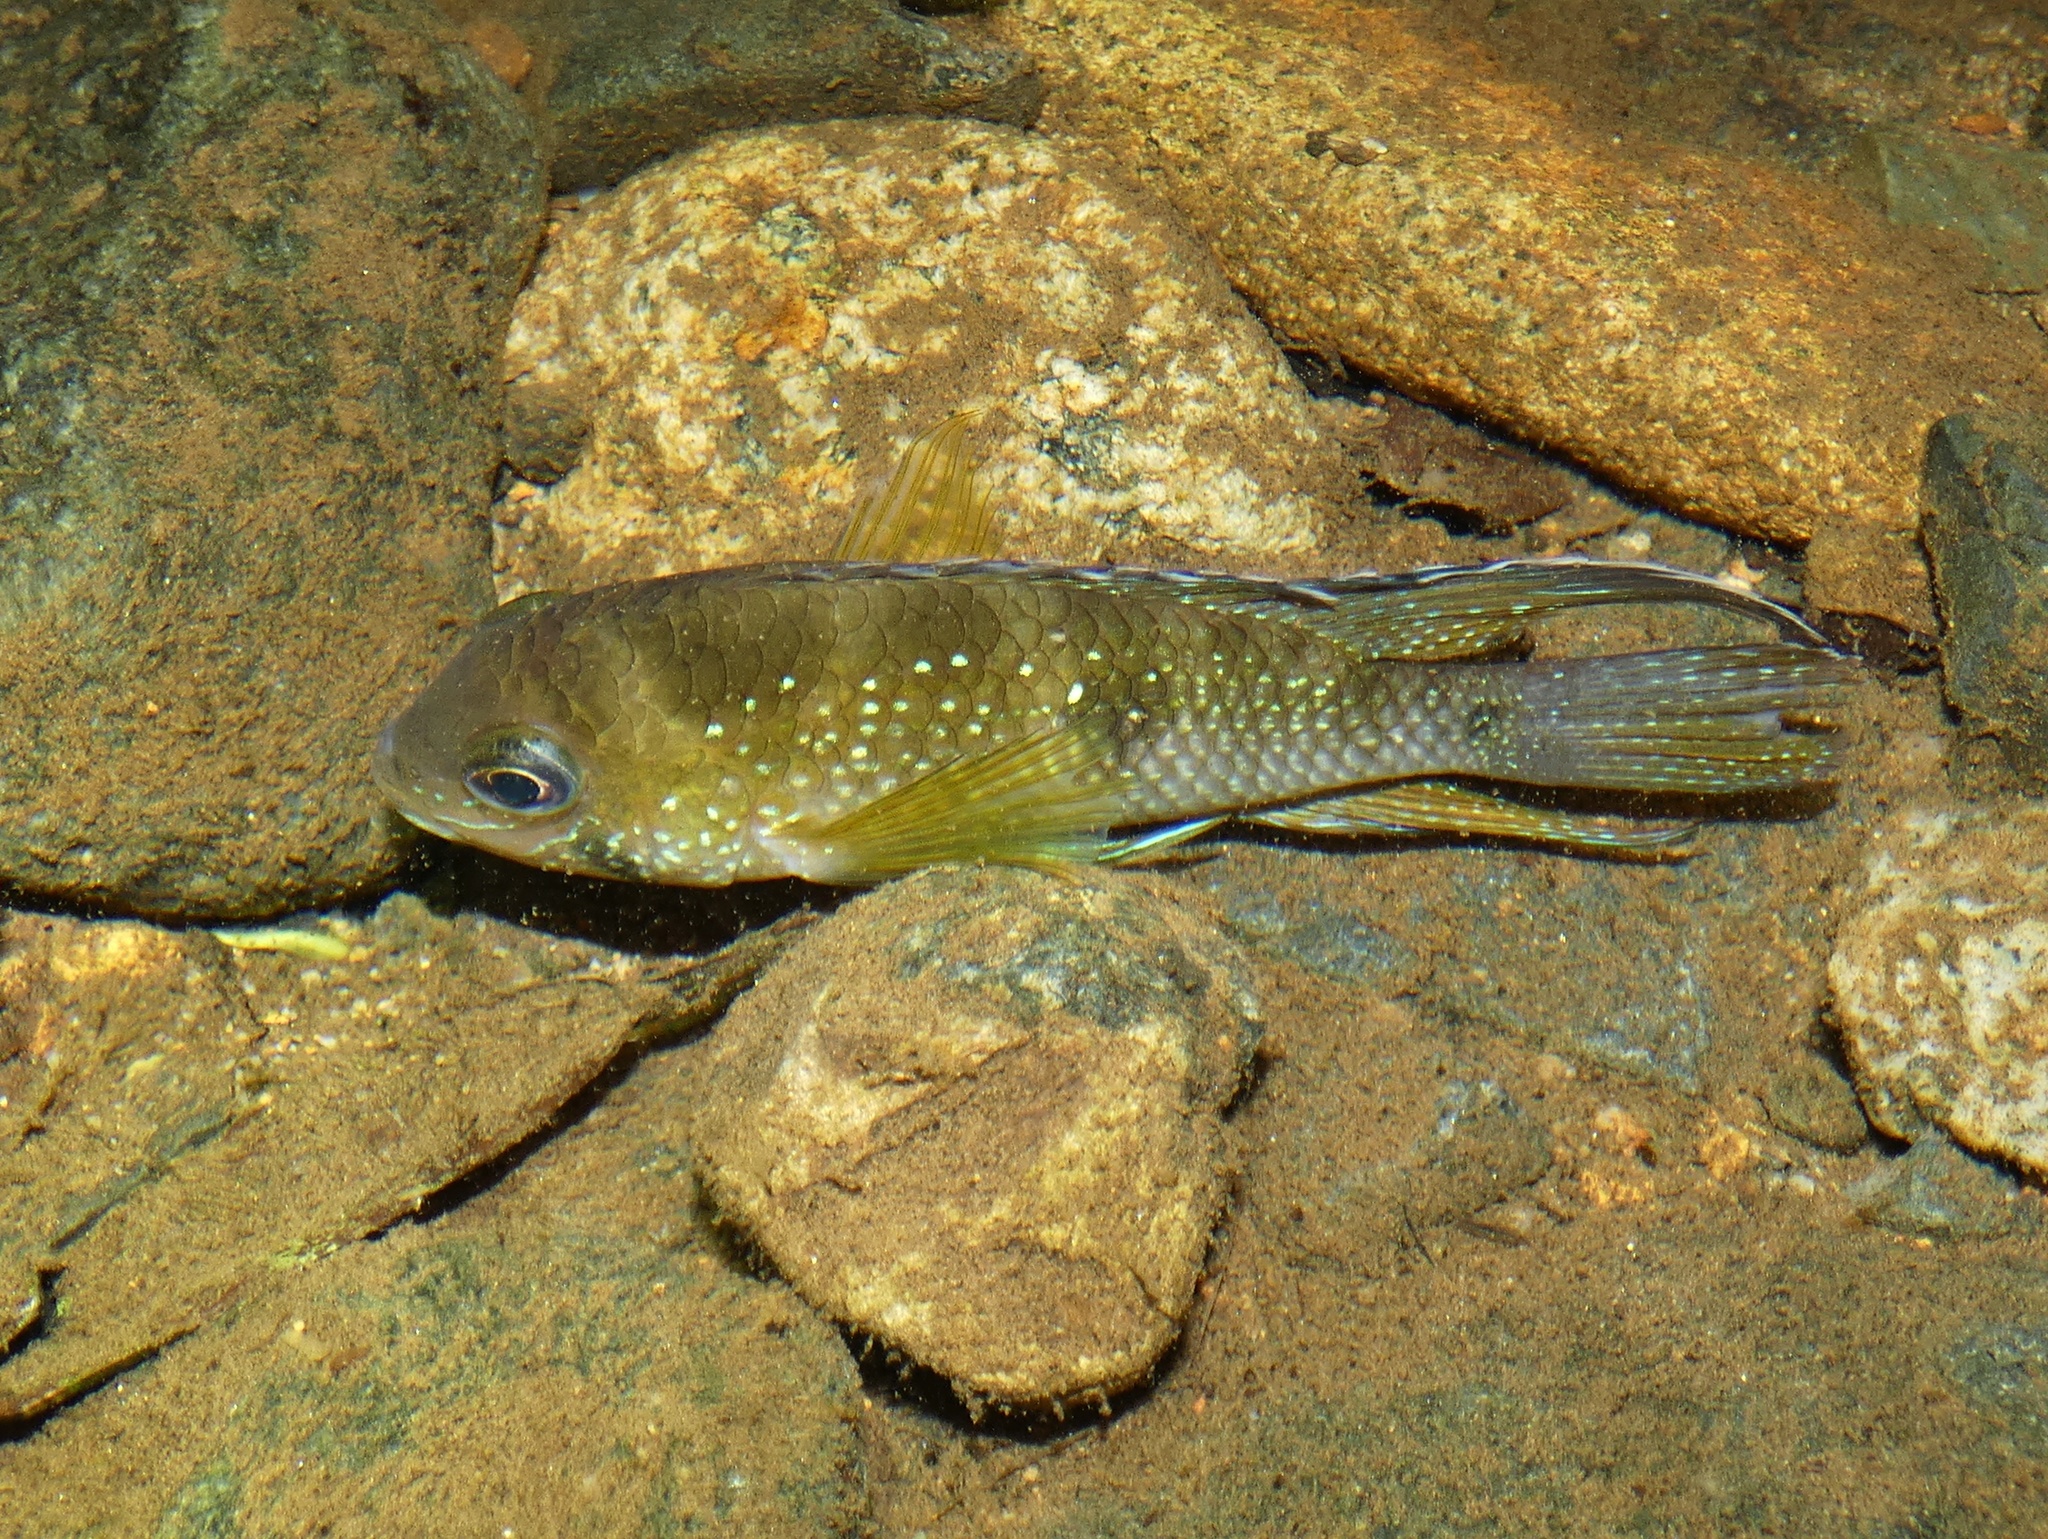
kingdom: Animalia
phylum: Chordata
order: Perciformes
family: Cichlidae
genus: Andinoacara
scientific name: Andinoacara coeruleopunctatus
